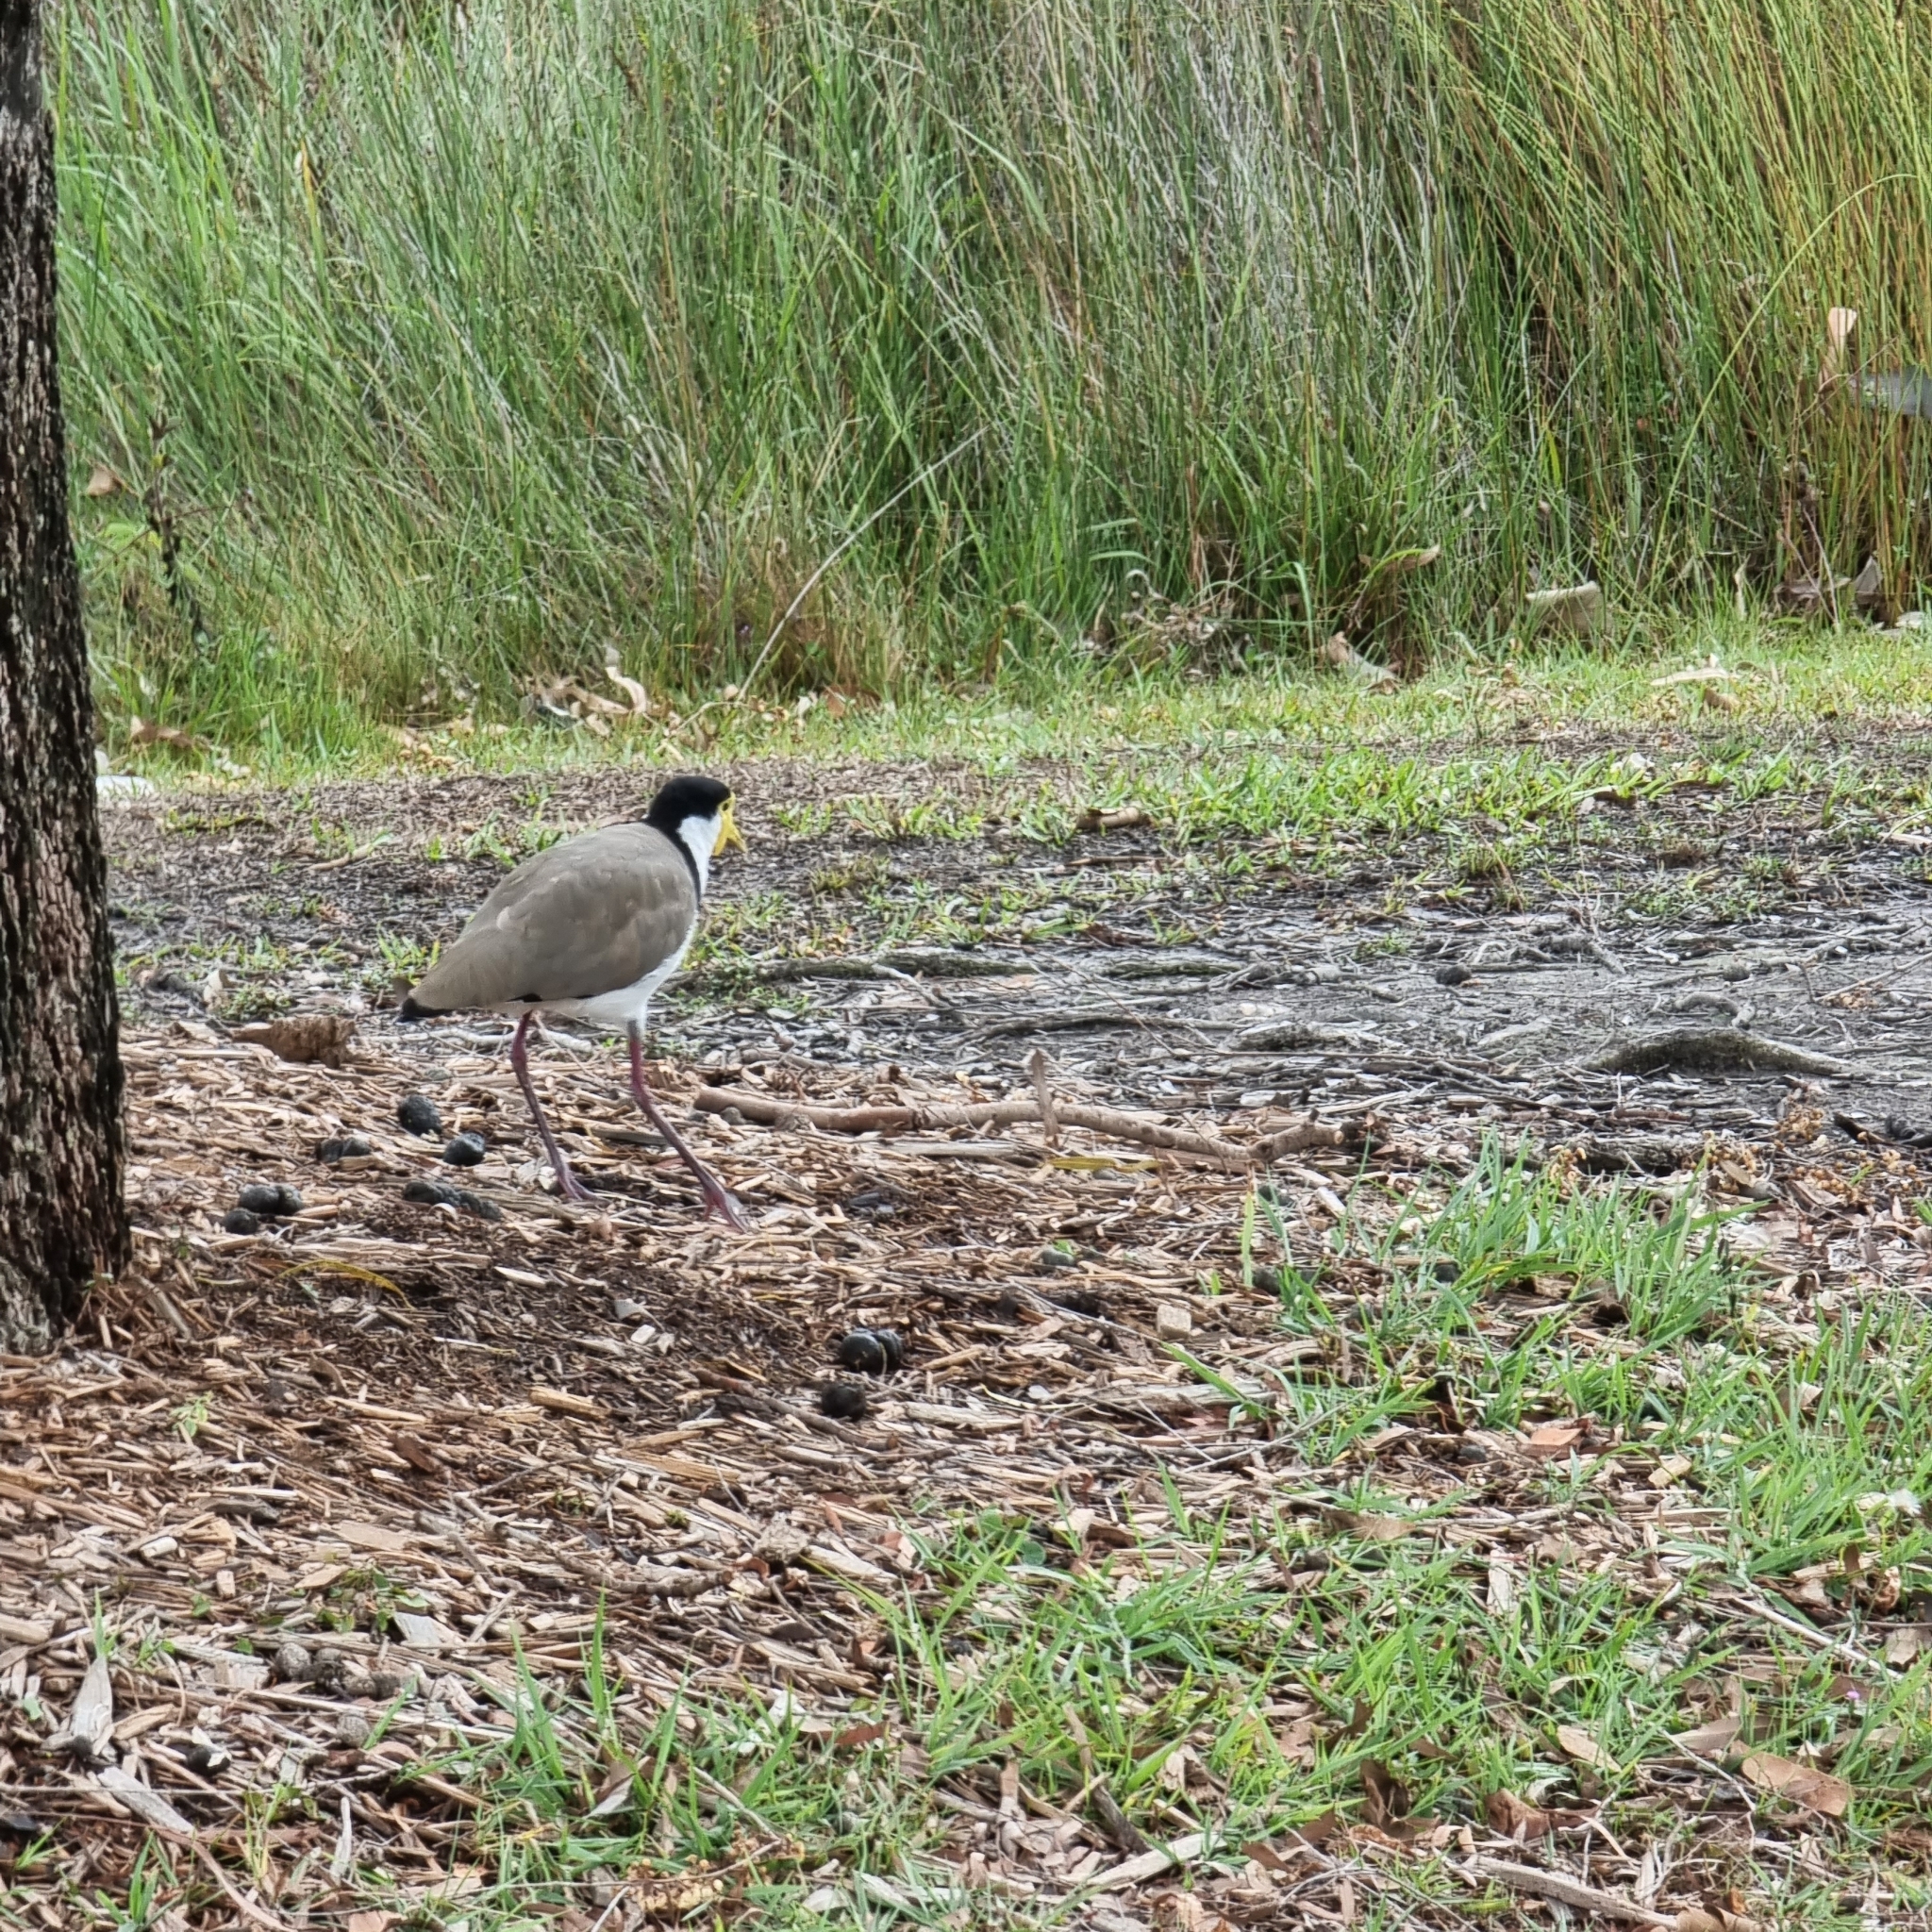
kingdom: Animalia
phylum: Chordata
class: Aves
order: Charadriiformes
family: Charadriidae
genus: Vanellus
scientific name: Vanellus miles
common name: Masked lapwing
